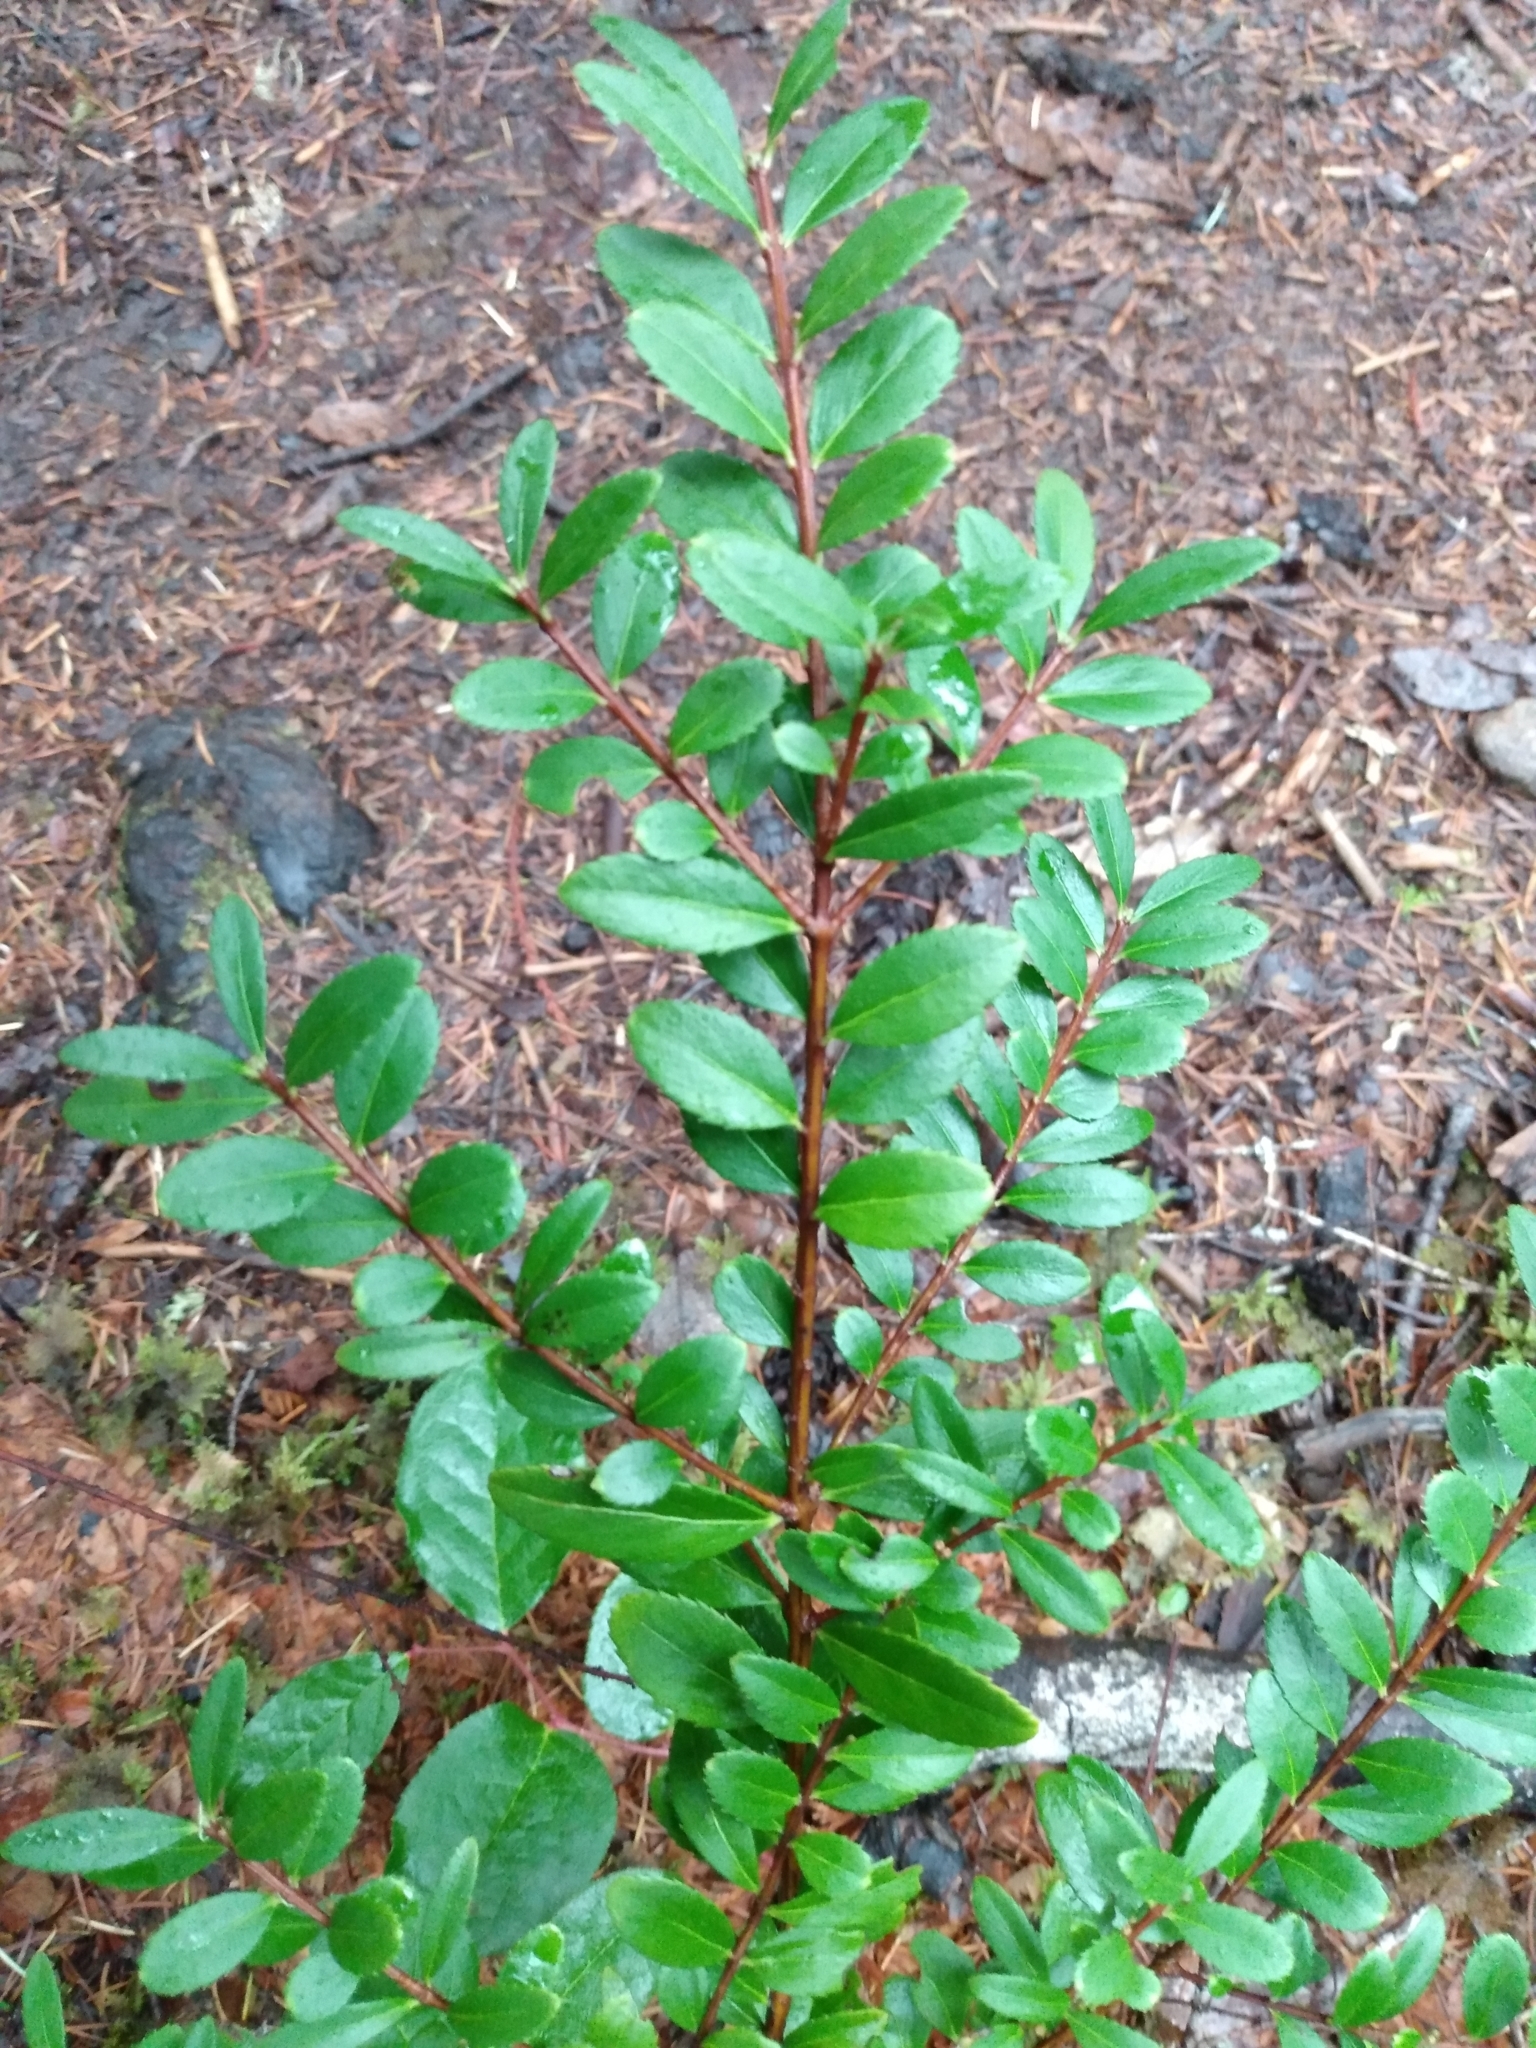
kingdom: Plantae
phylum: Tracheophyta
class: Magnoliopsida
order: Celastrales
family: Celastraceae
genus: Paxistima
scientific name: Paxistima myrsinites
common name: Mountain-lover
